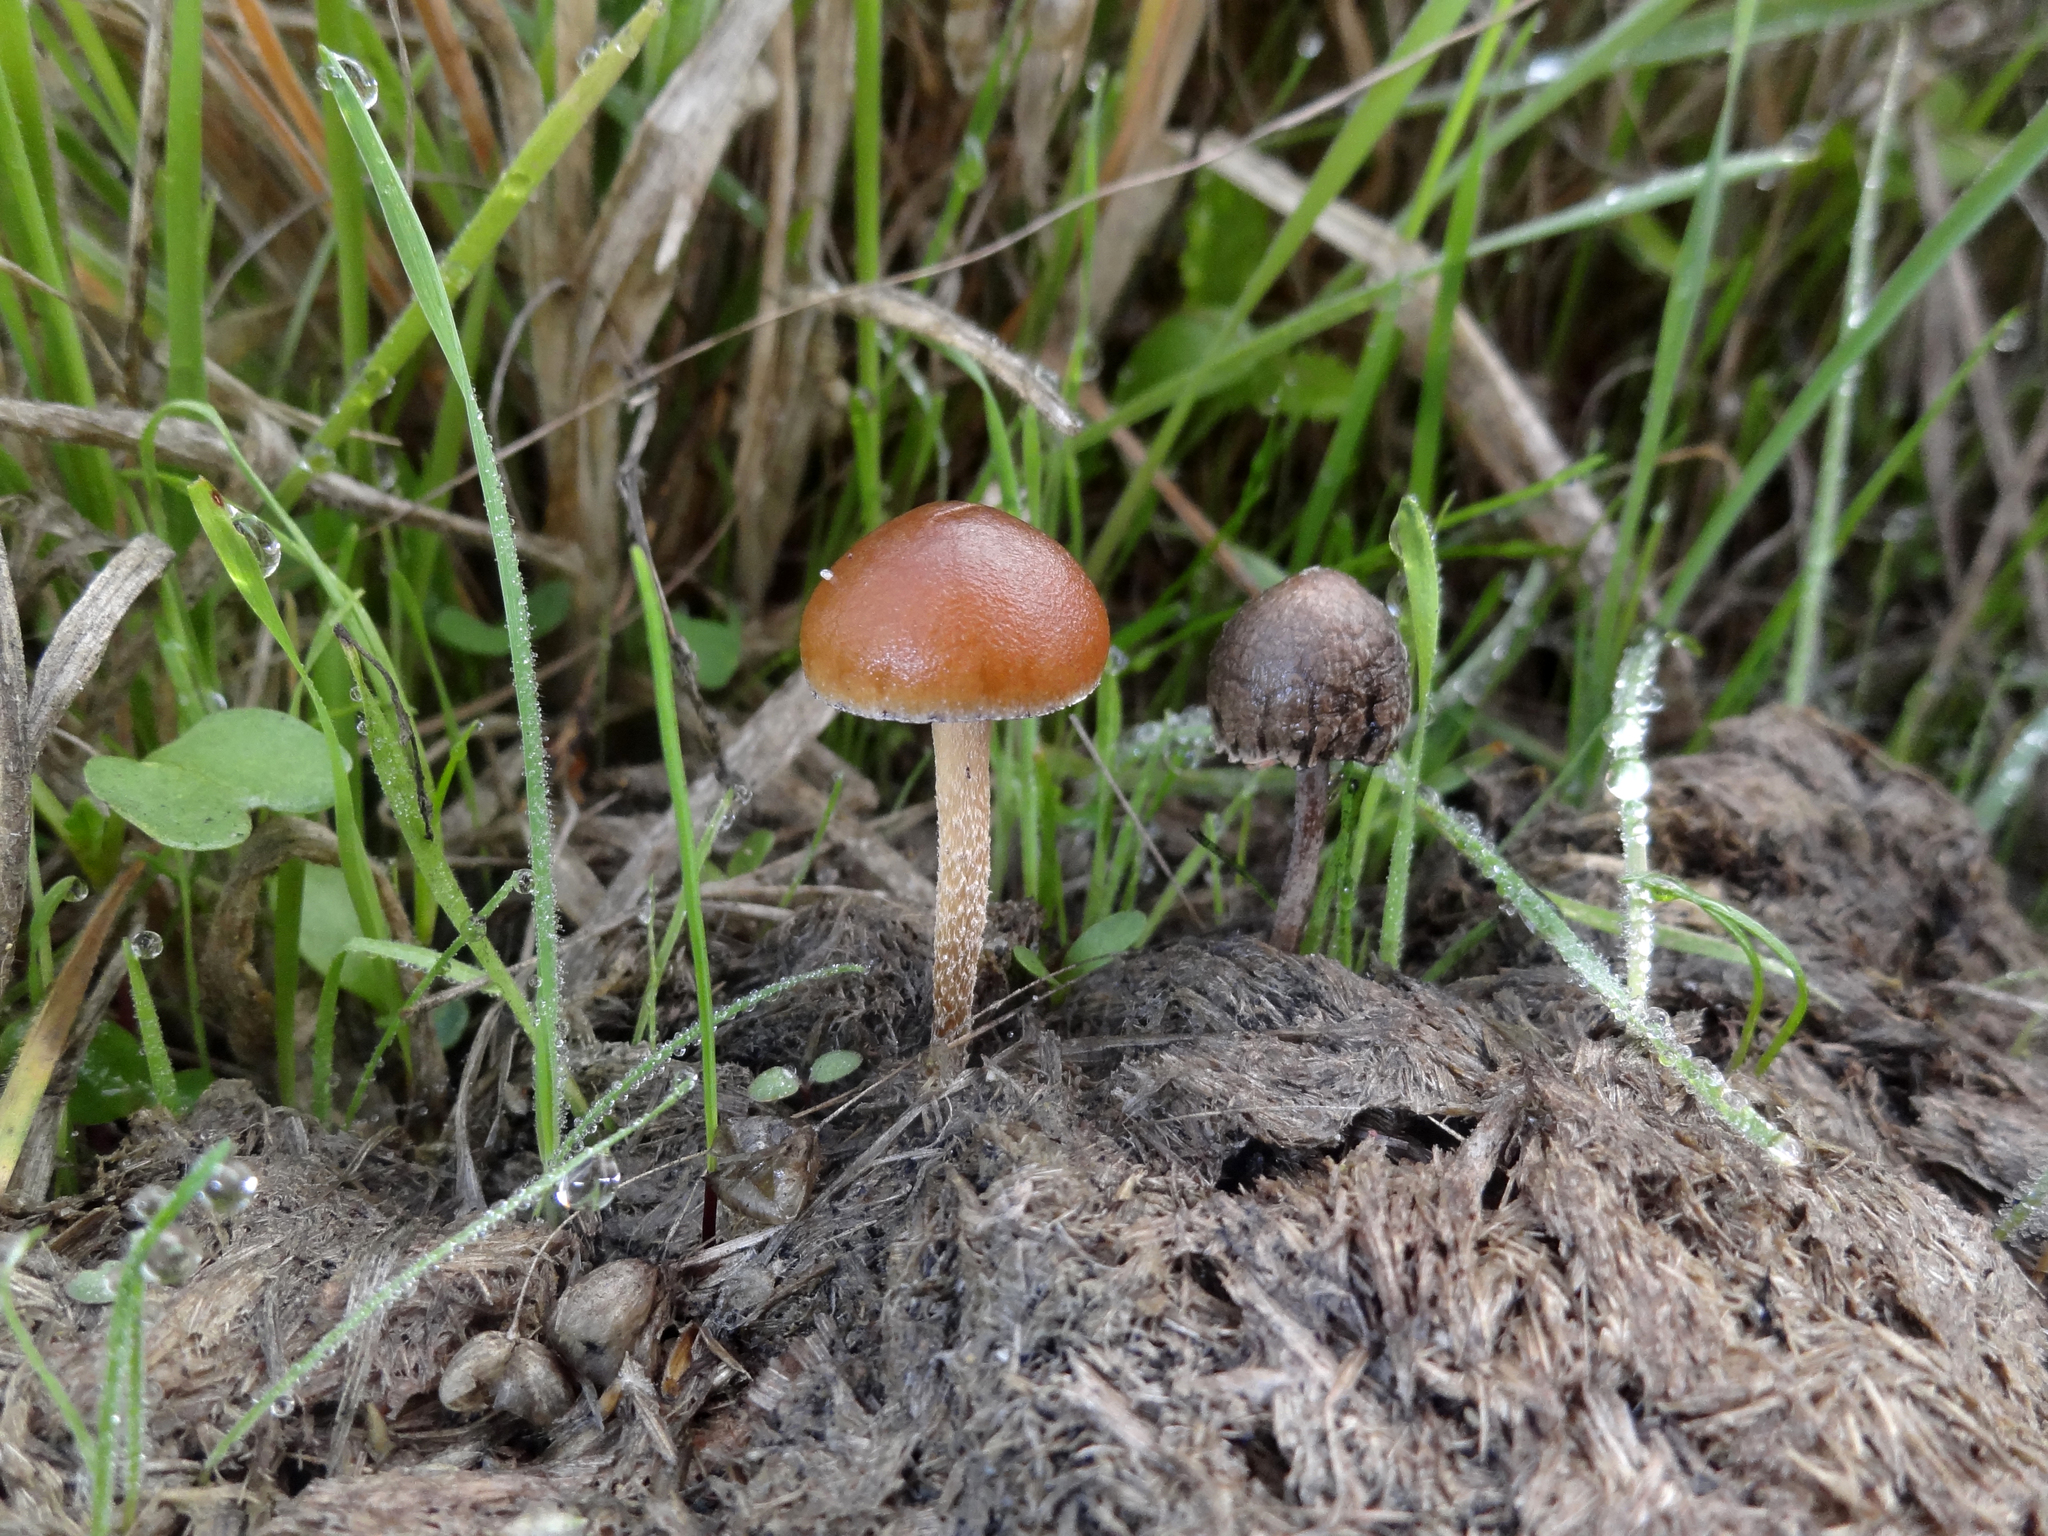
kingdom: Fungi
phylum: Basidiomycota
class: Agaricomycetes
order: Agaricales
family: Strophariaceae
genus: Deconica
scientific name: Deconica coprophila
